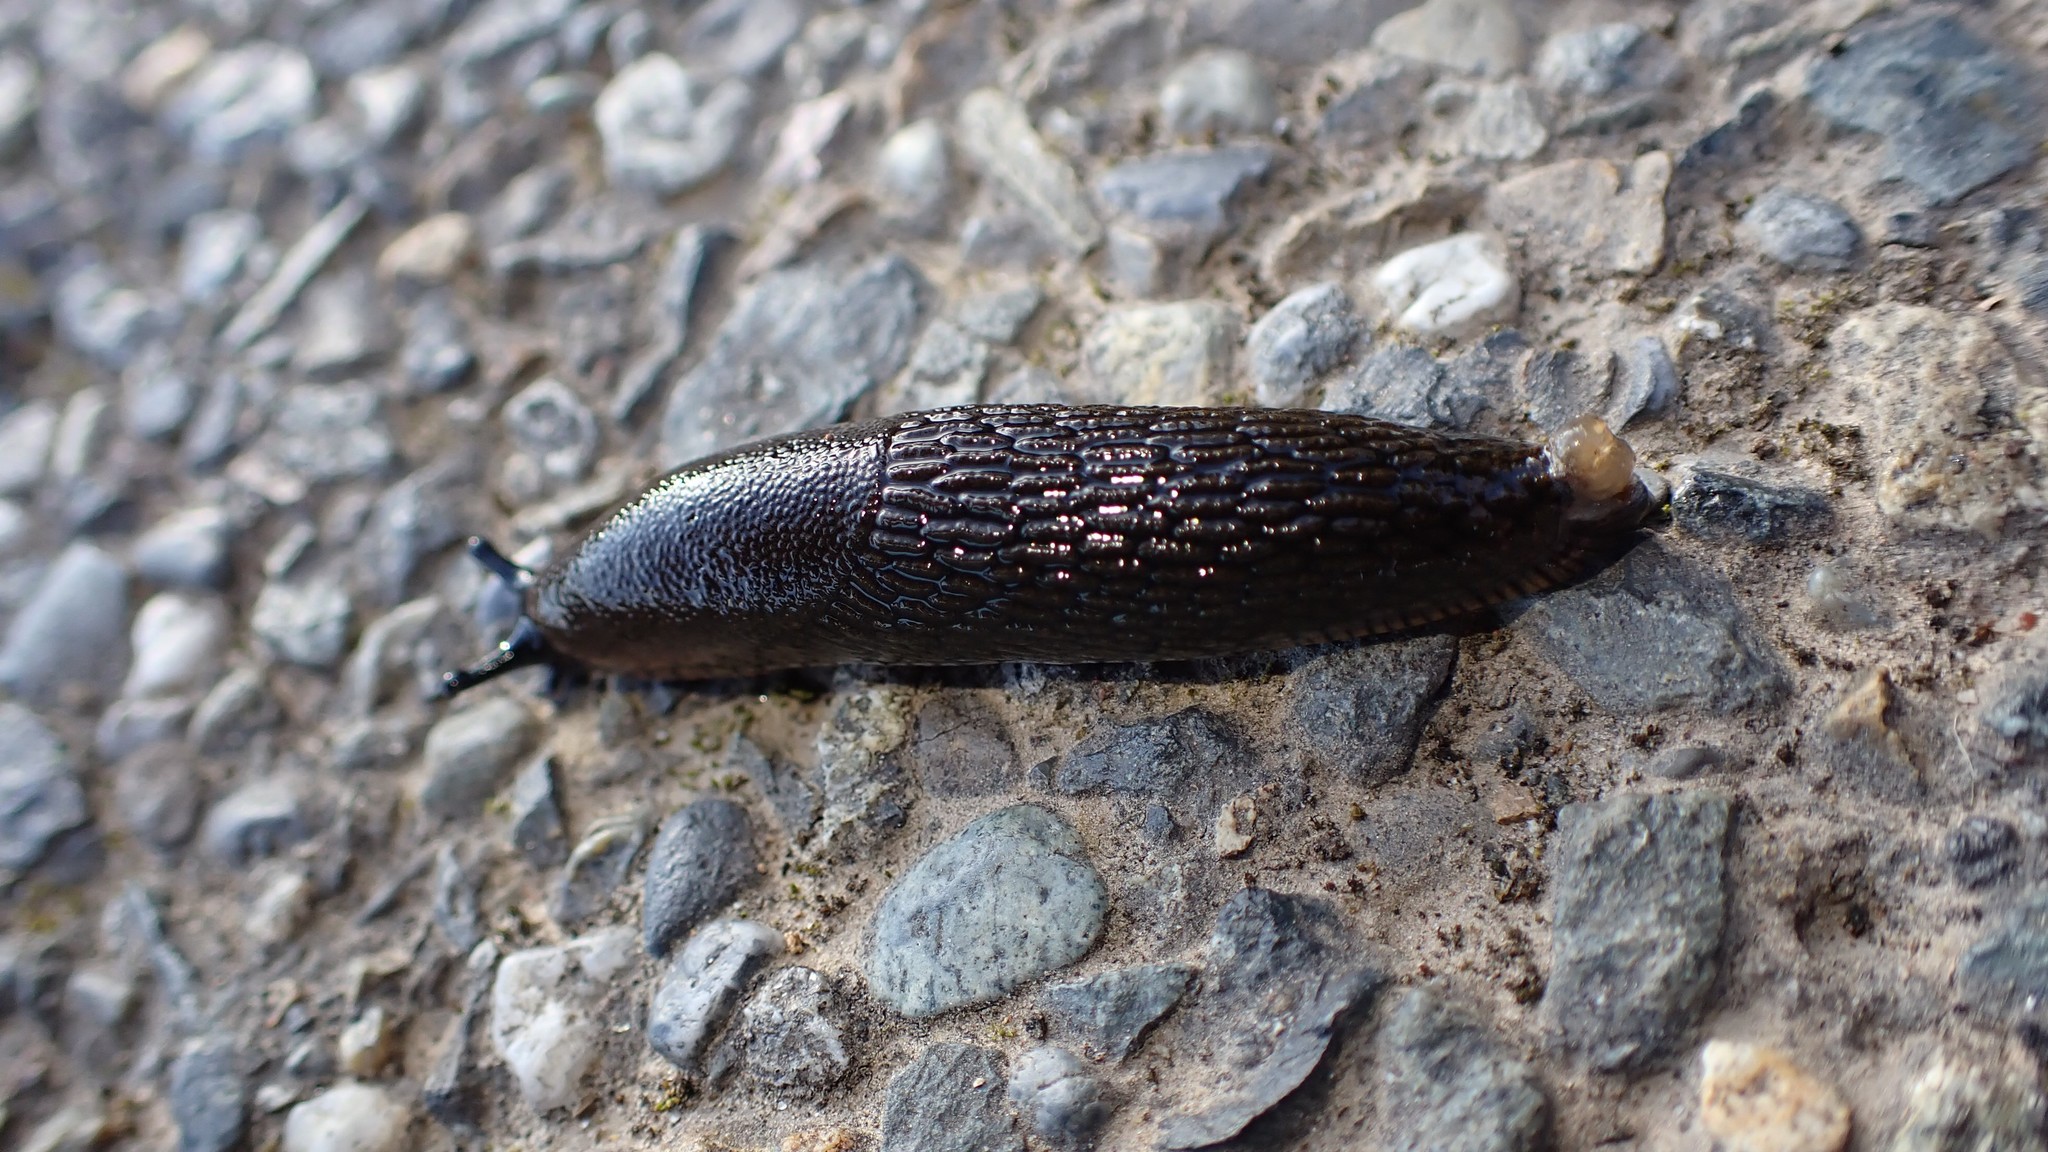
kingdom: Animalia
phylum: Mollusca
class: Gastropoda
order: Stylommatophora
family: Arionidae
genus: Arion
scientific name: Arion
